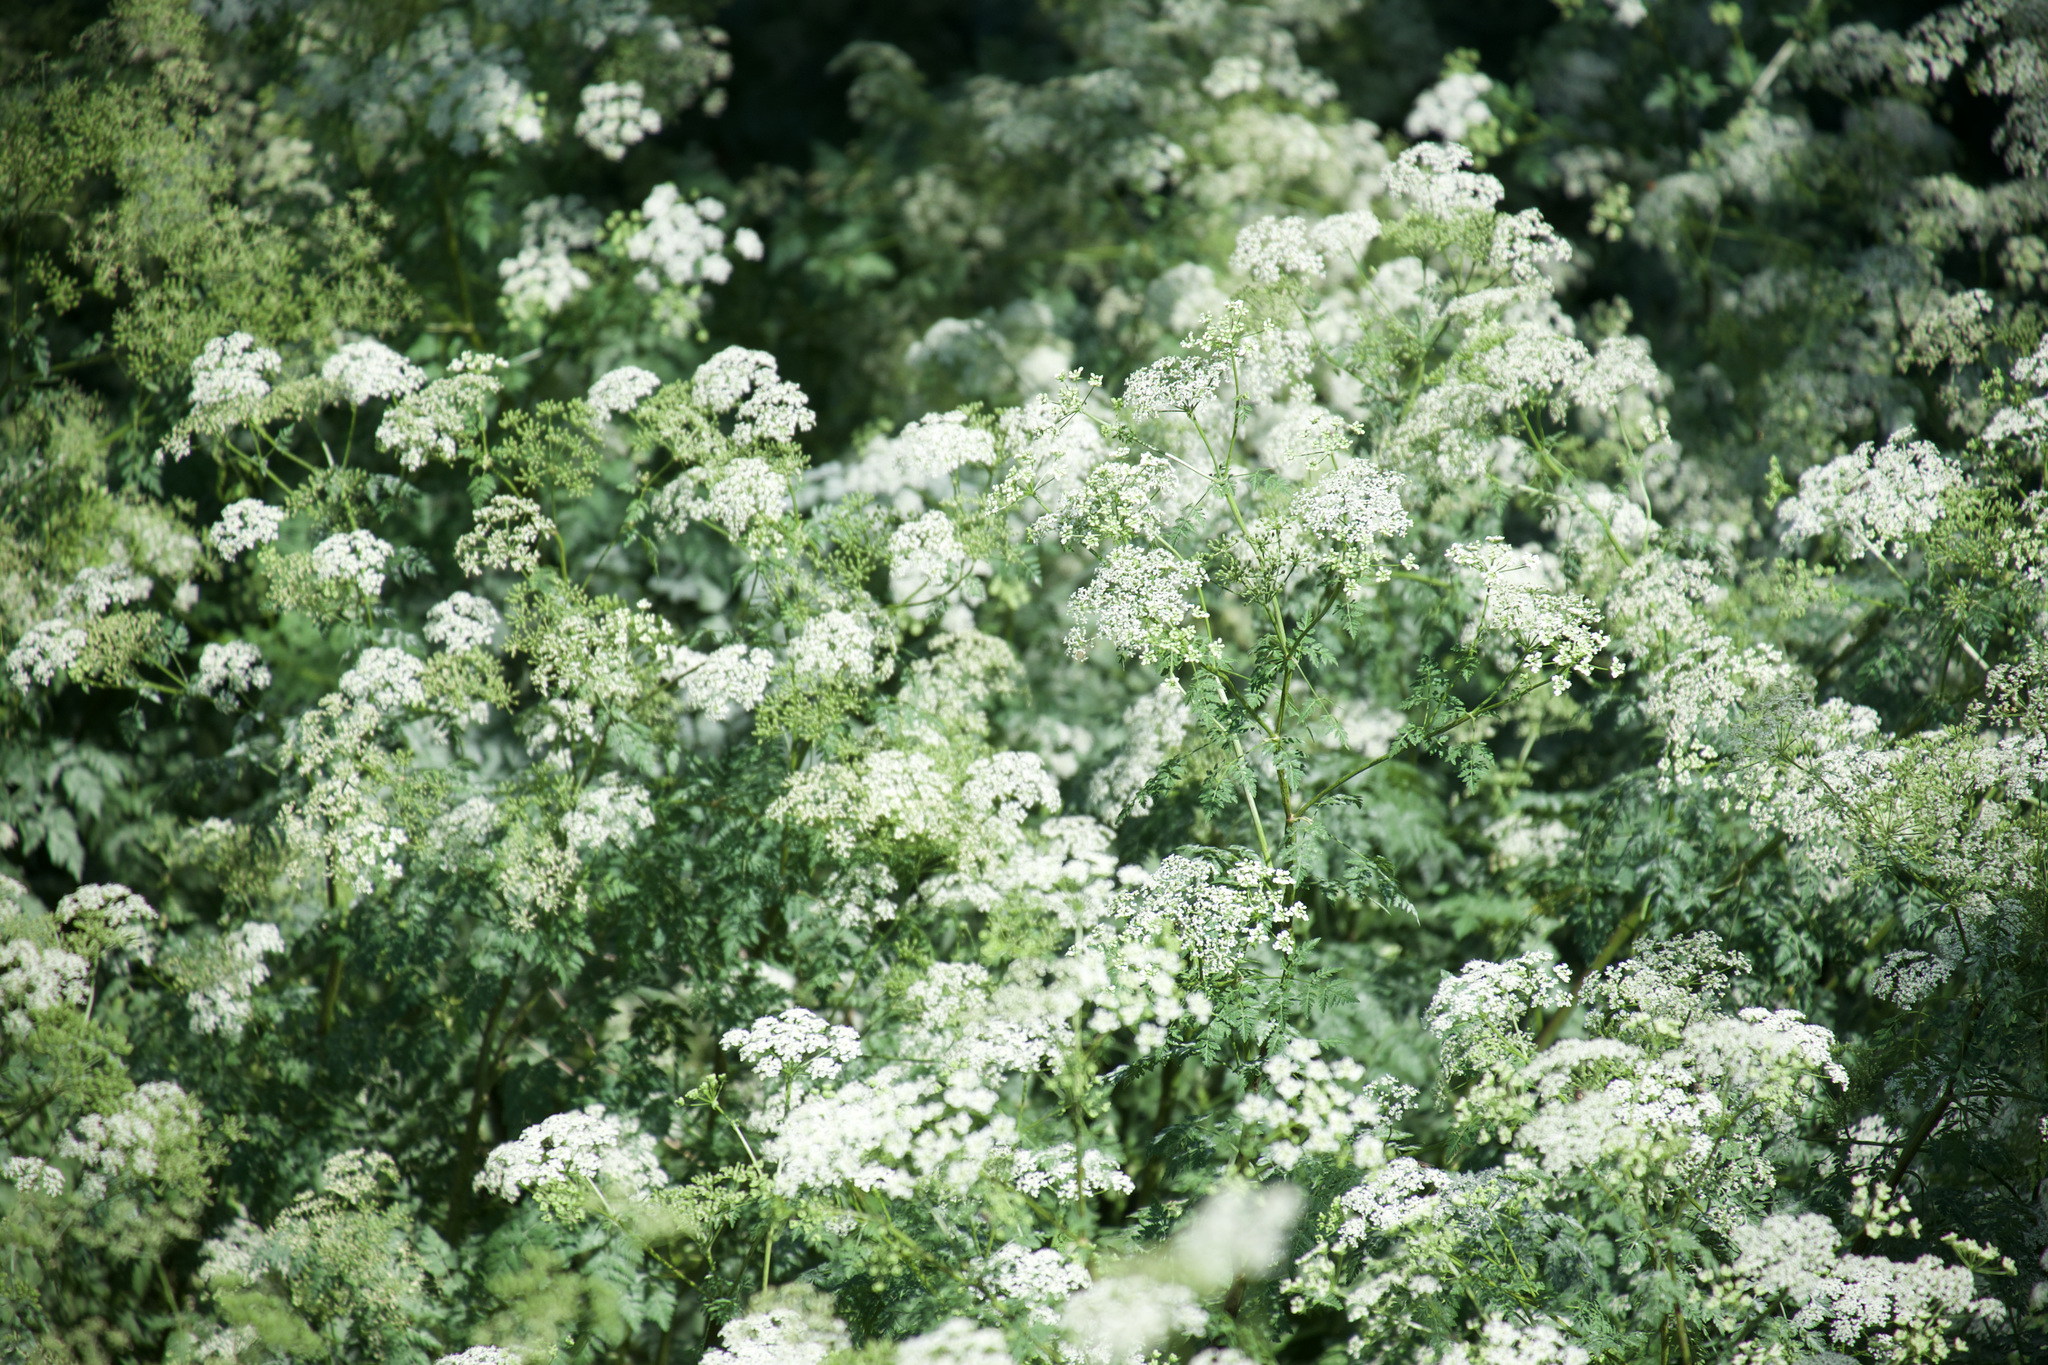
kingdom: Plantae
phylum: Tracheophyta
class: Magnoliopsida
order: Apiales
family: Apiaceae
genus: Conium
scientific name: Conium maculatum
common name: Hemlock
